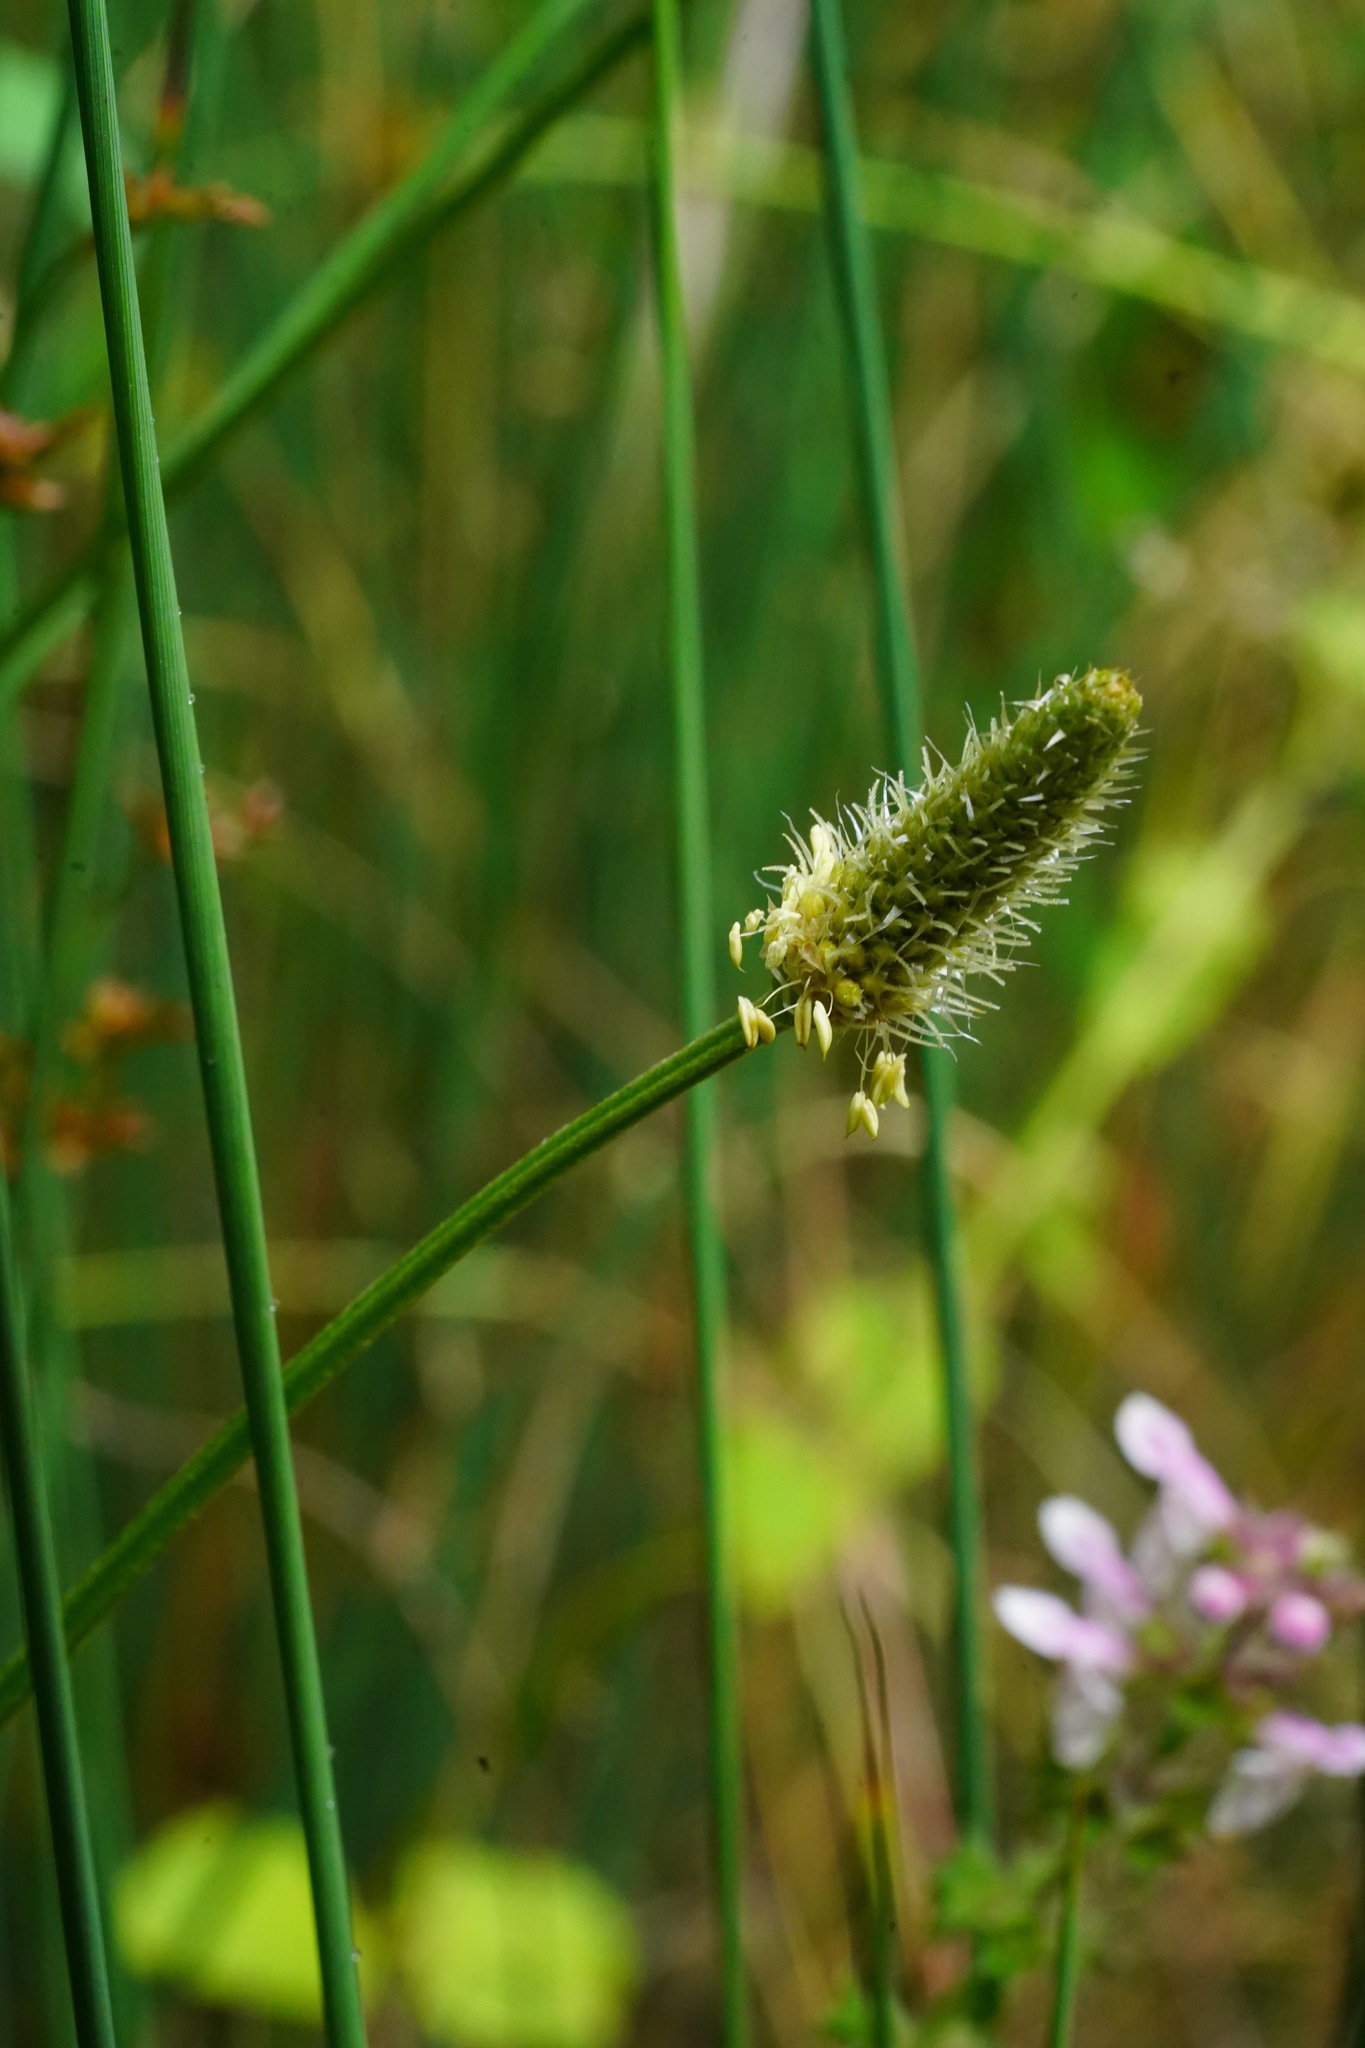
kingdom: Plantae
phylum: Tracheophyta
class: Magnoliopsida
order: Lamiales
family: Plantaginaceae
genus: Plantago
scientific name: Plantago lanceolata
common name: Ribwort plantain
